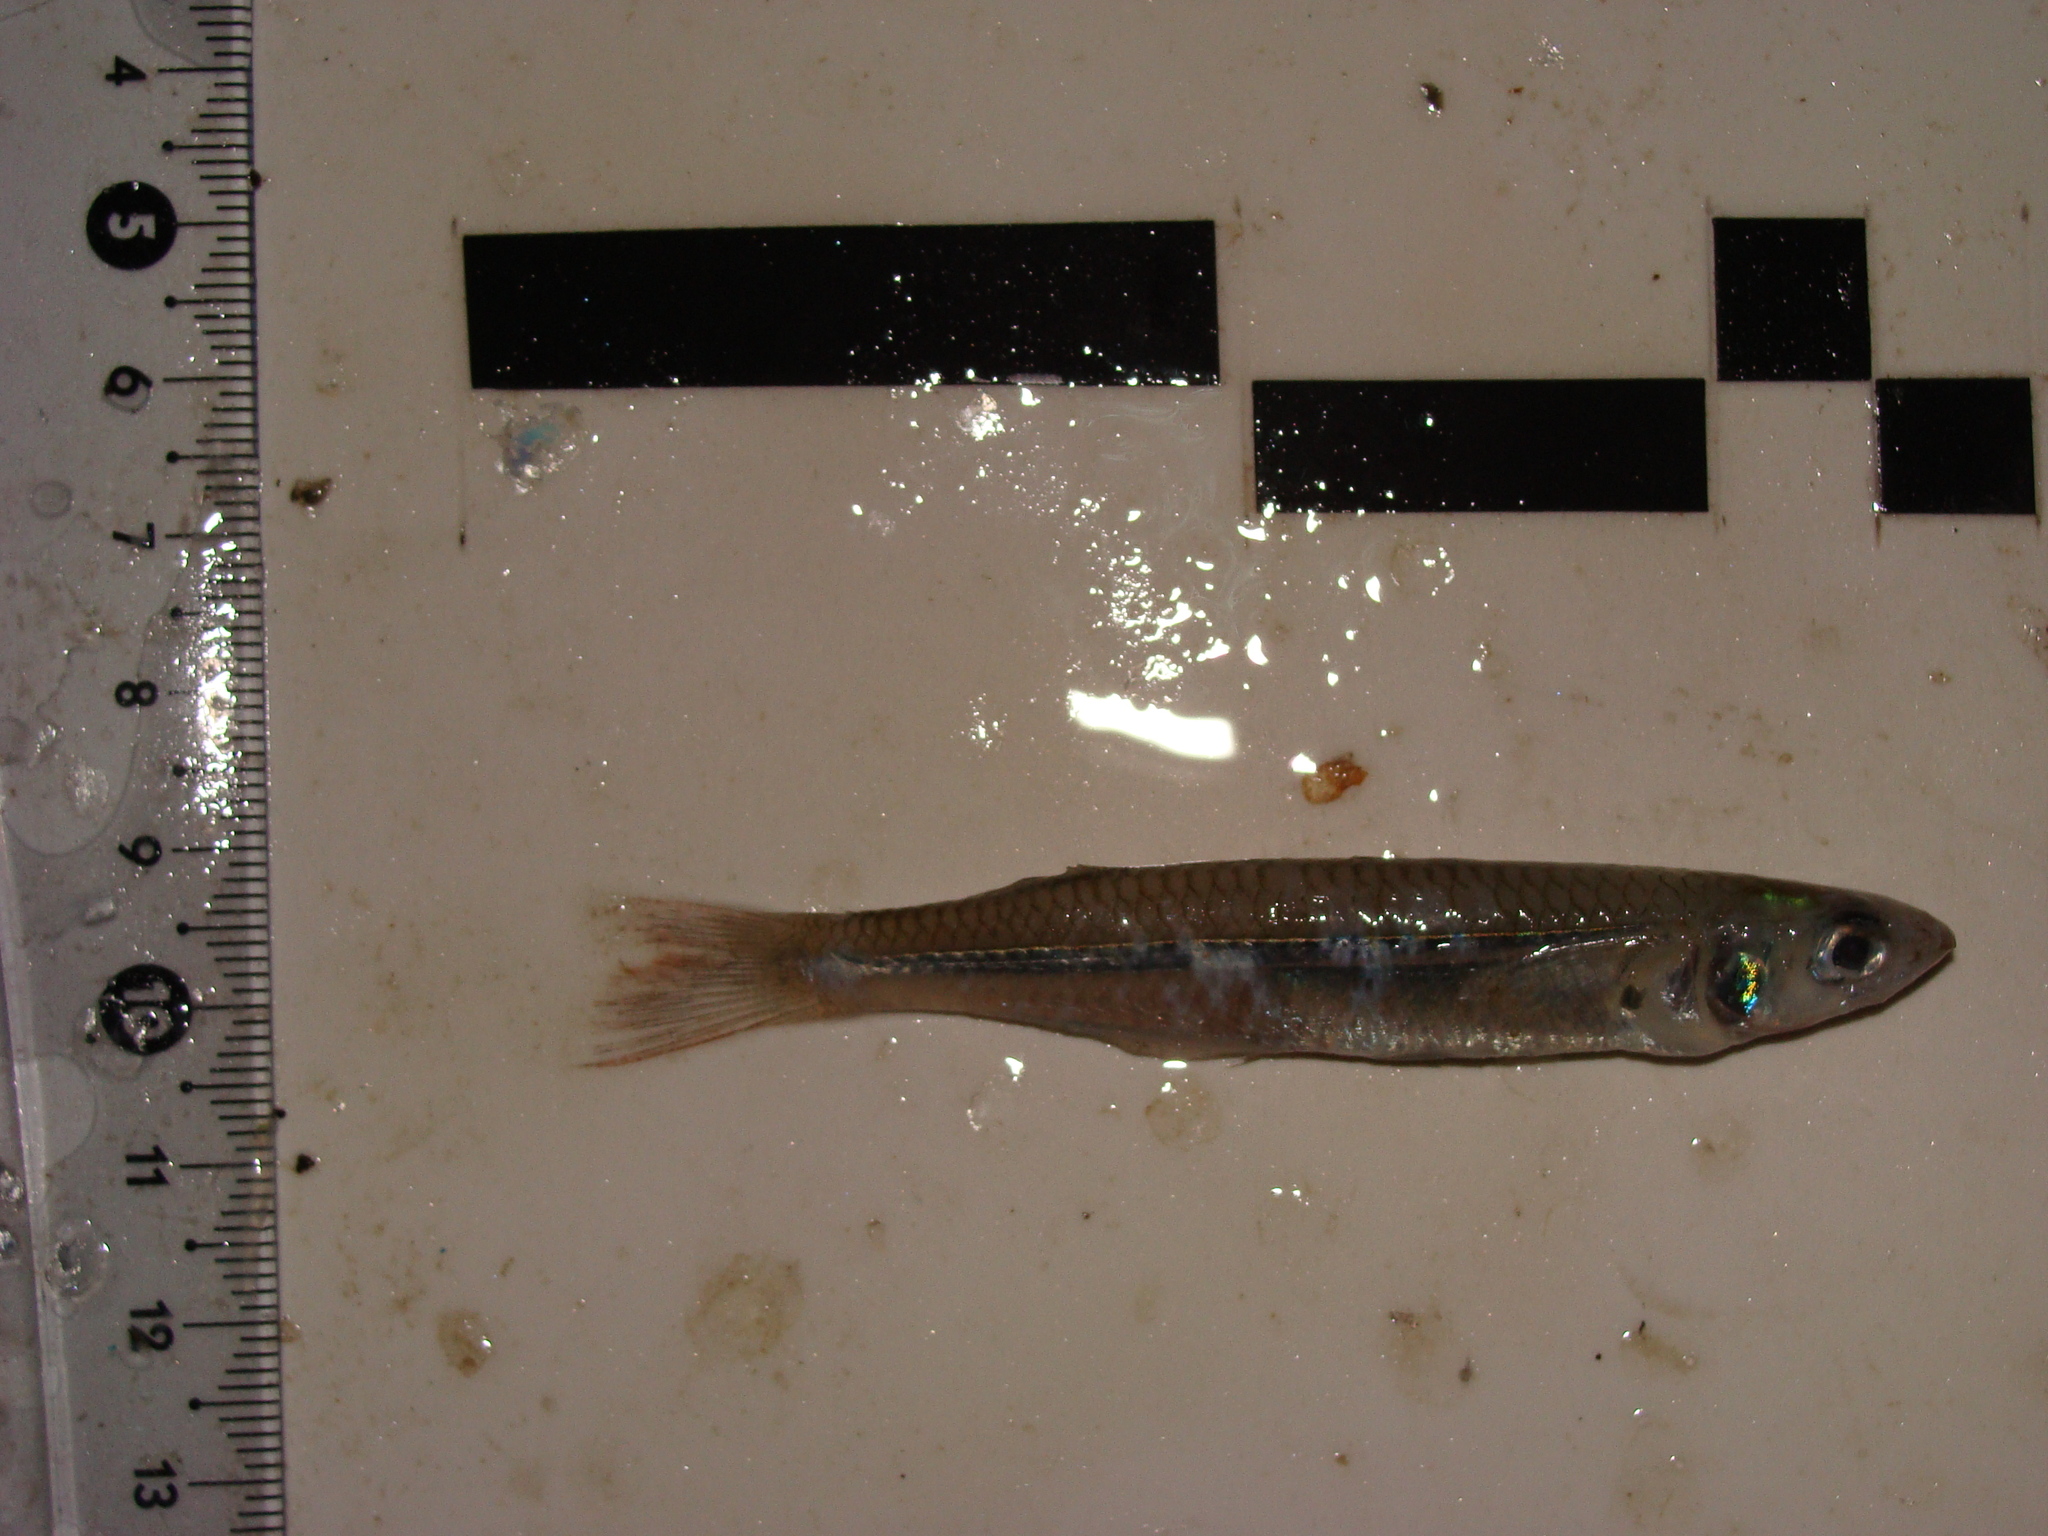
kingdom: Animalia
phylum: Chordata
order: Atheriniformes
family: Atherinopsidae
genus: Atherinella
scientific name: Atherinella brasiliensis
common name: Brazilian silversides
